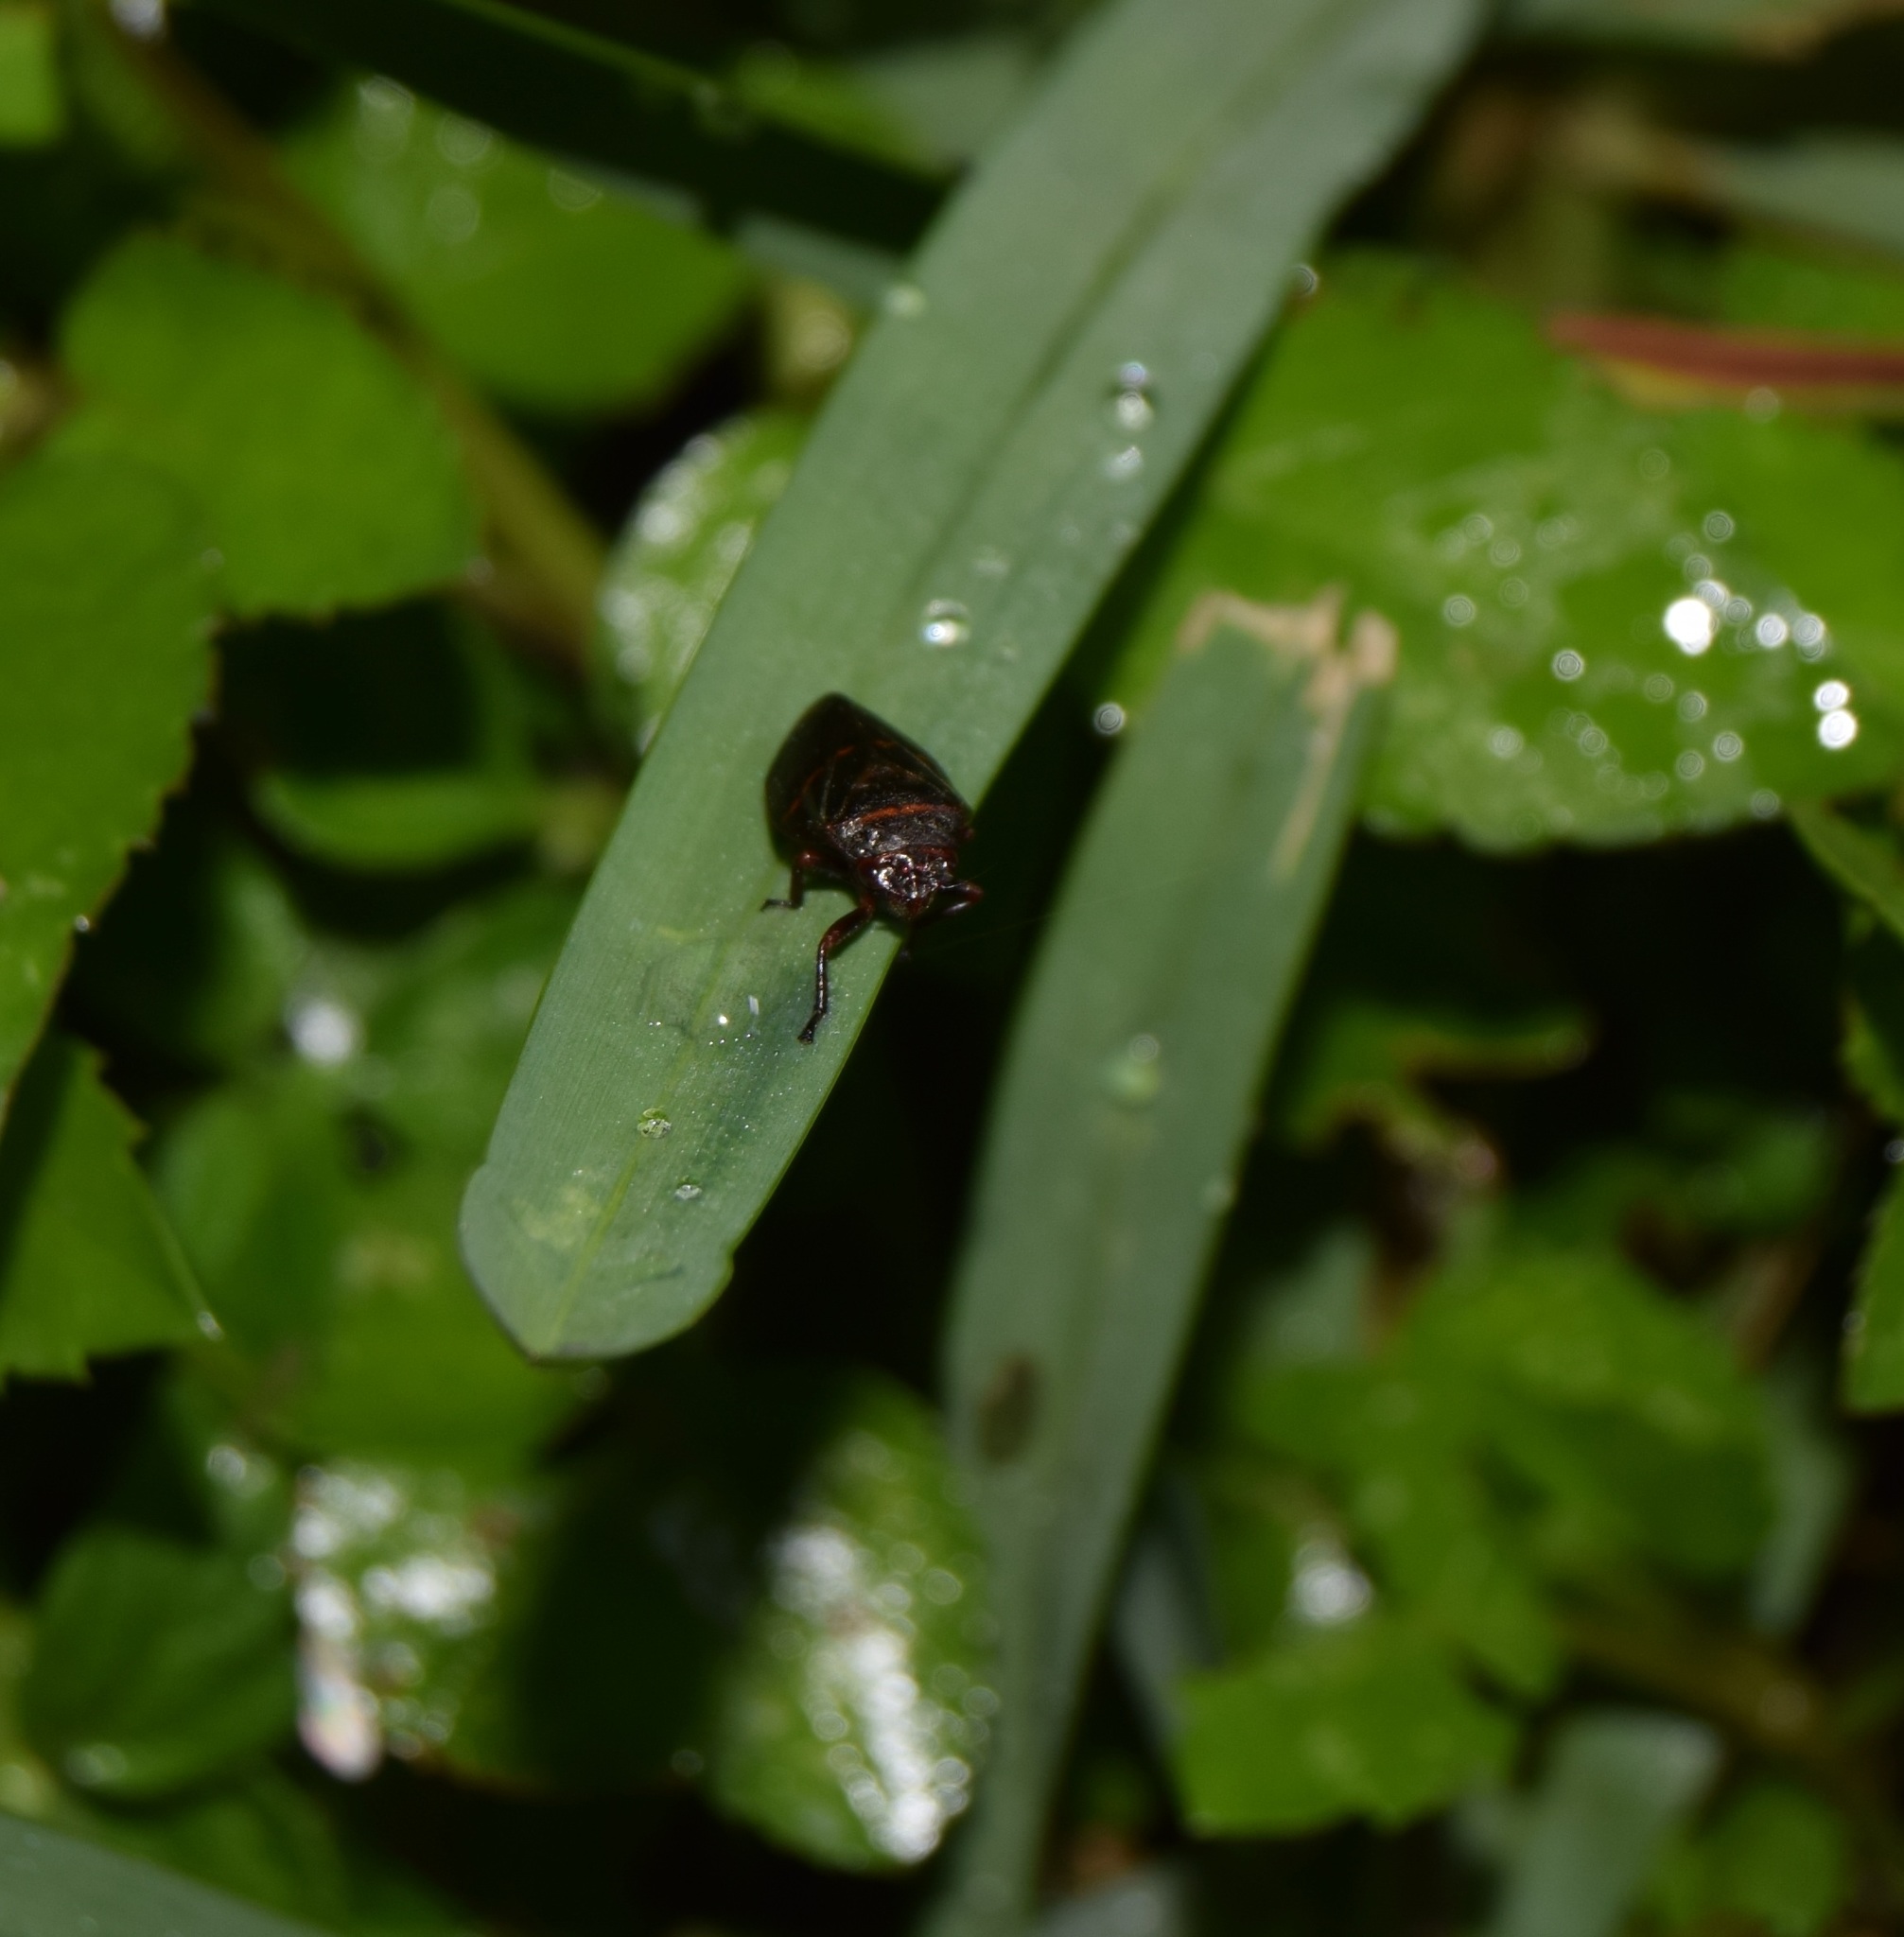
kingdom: Animalia
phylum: Arthropoda
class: Insecta
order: Hemiptera
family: Cercopidae
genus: Prosapia
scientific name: Prosapia bicincta
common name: Twolined spittlebug
